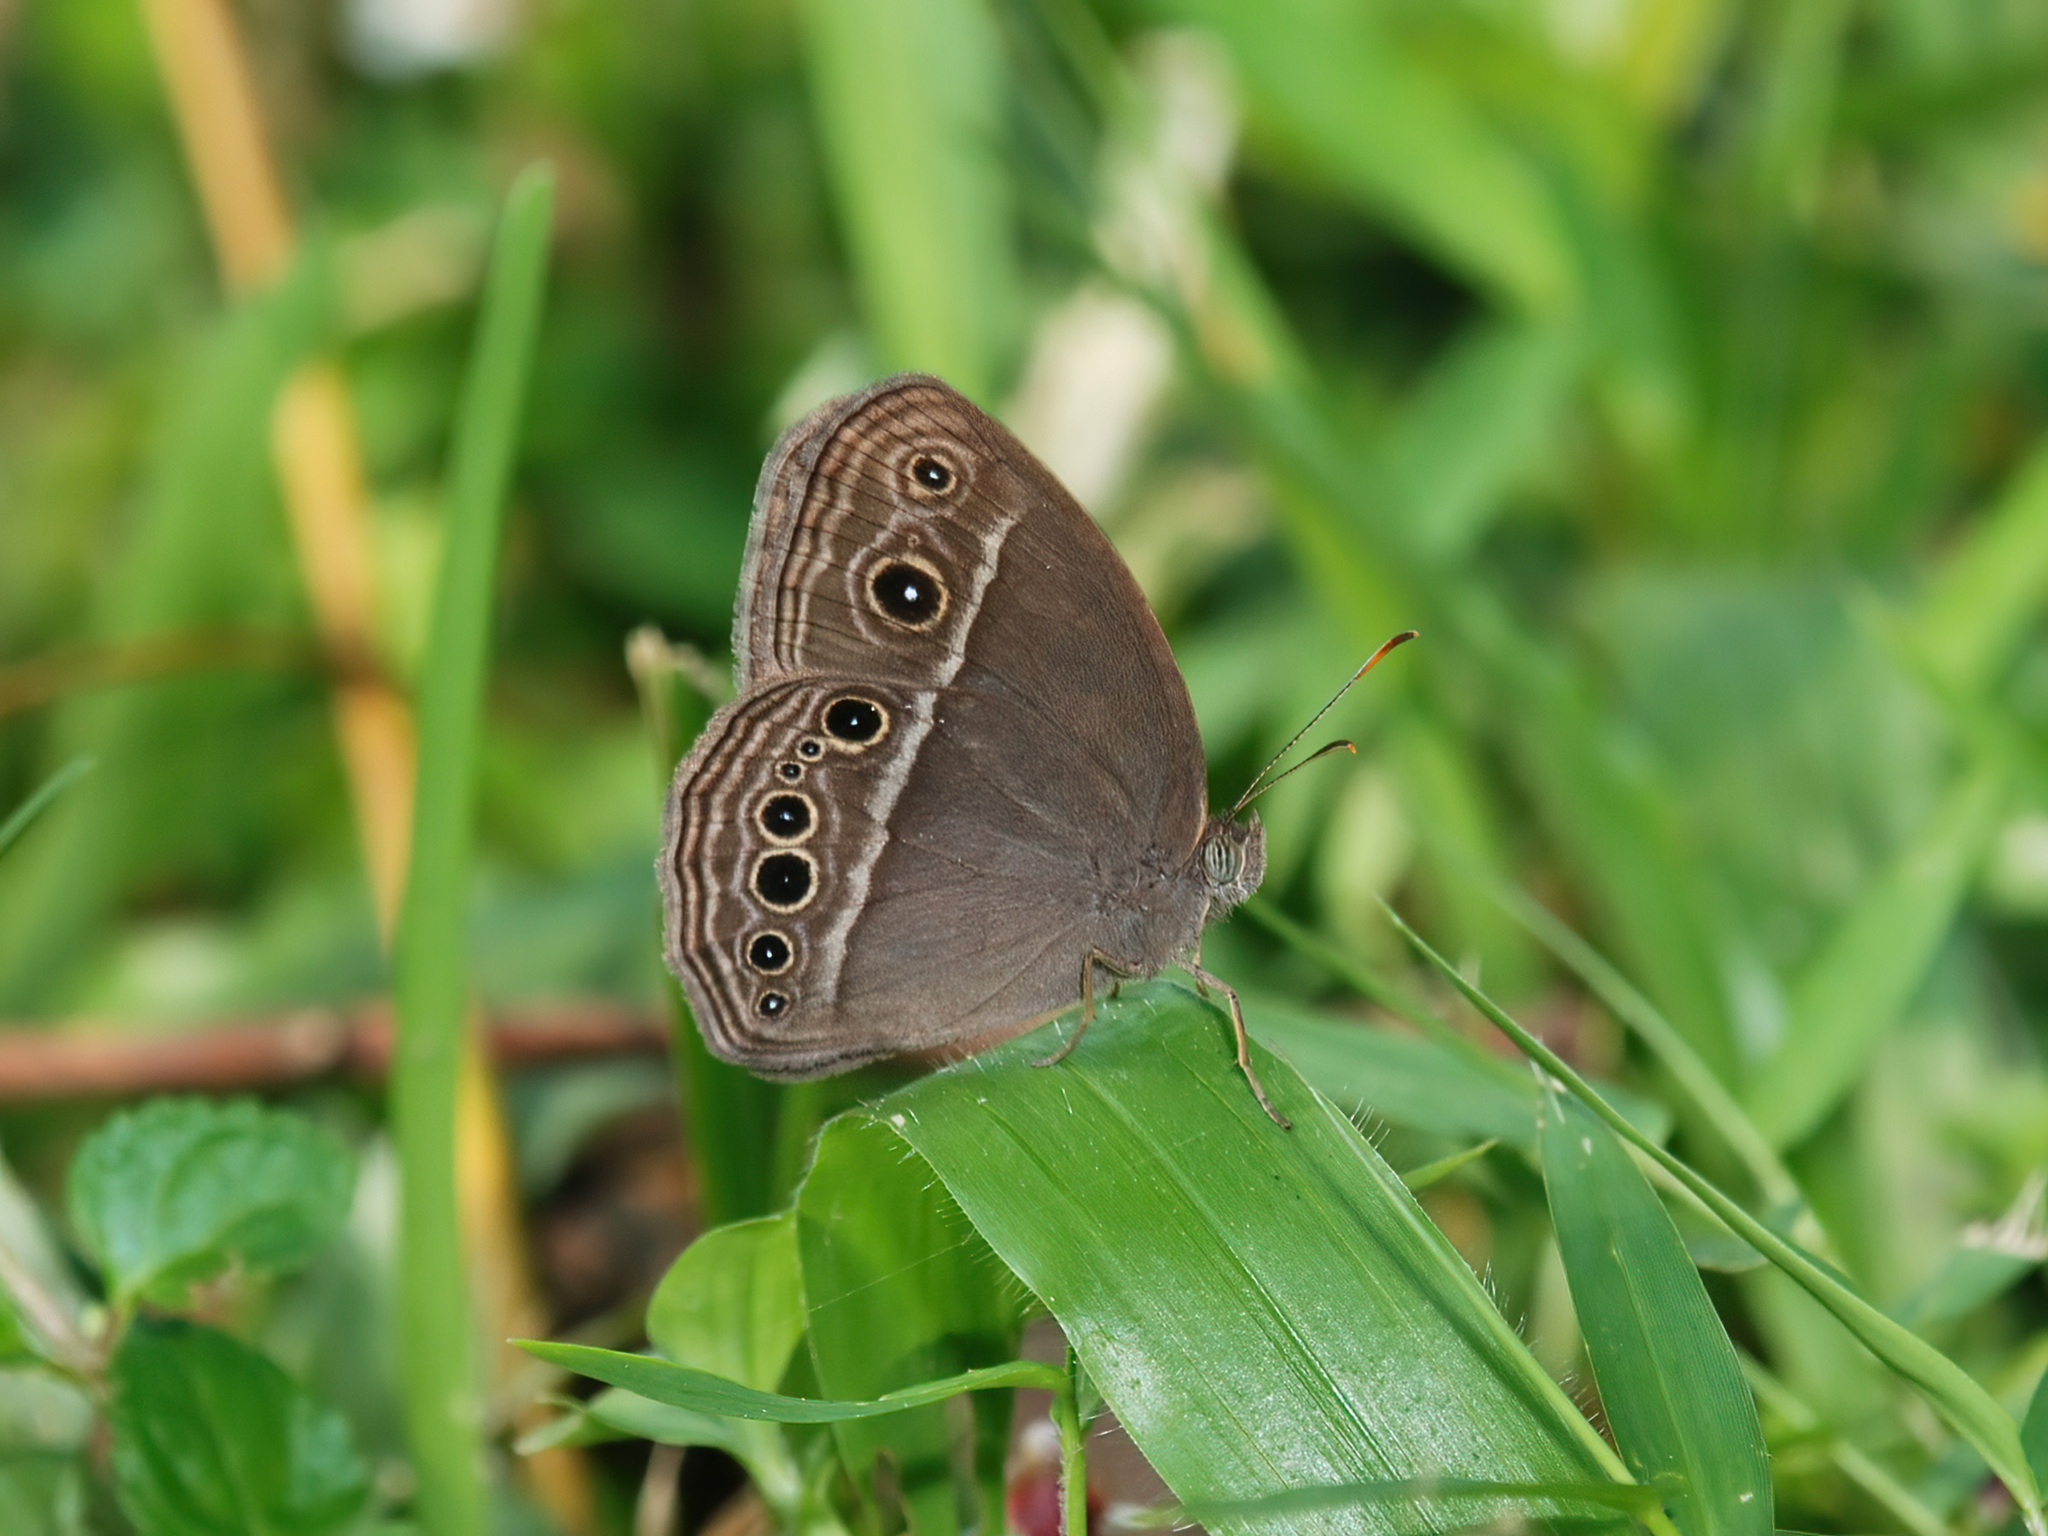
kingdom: Animalia
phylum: Arthropoda
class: Insecta
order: Lepidoptera
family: Nymphalidae
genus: Mycalesis
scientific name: Mycalesis mineus
